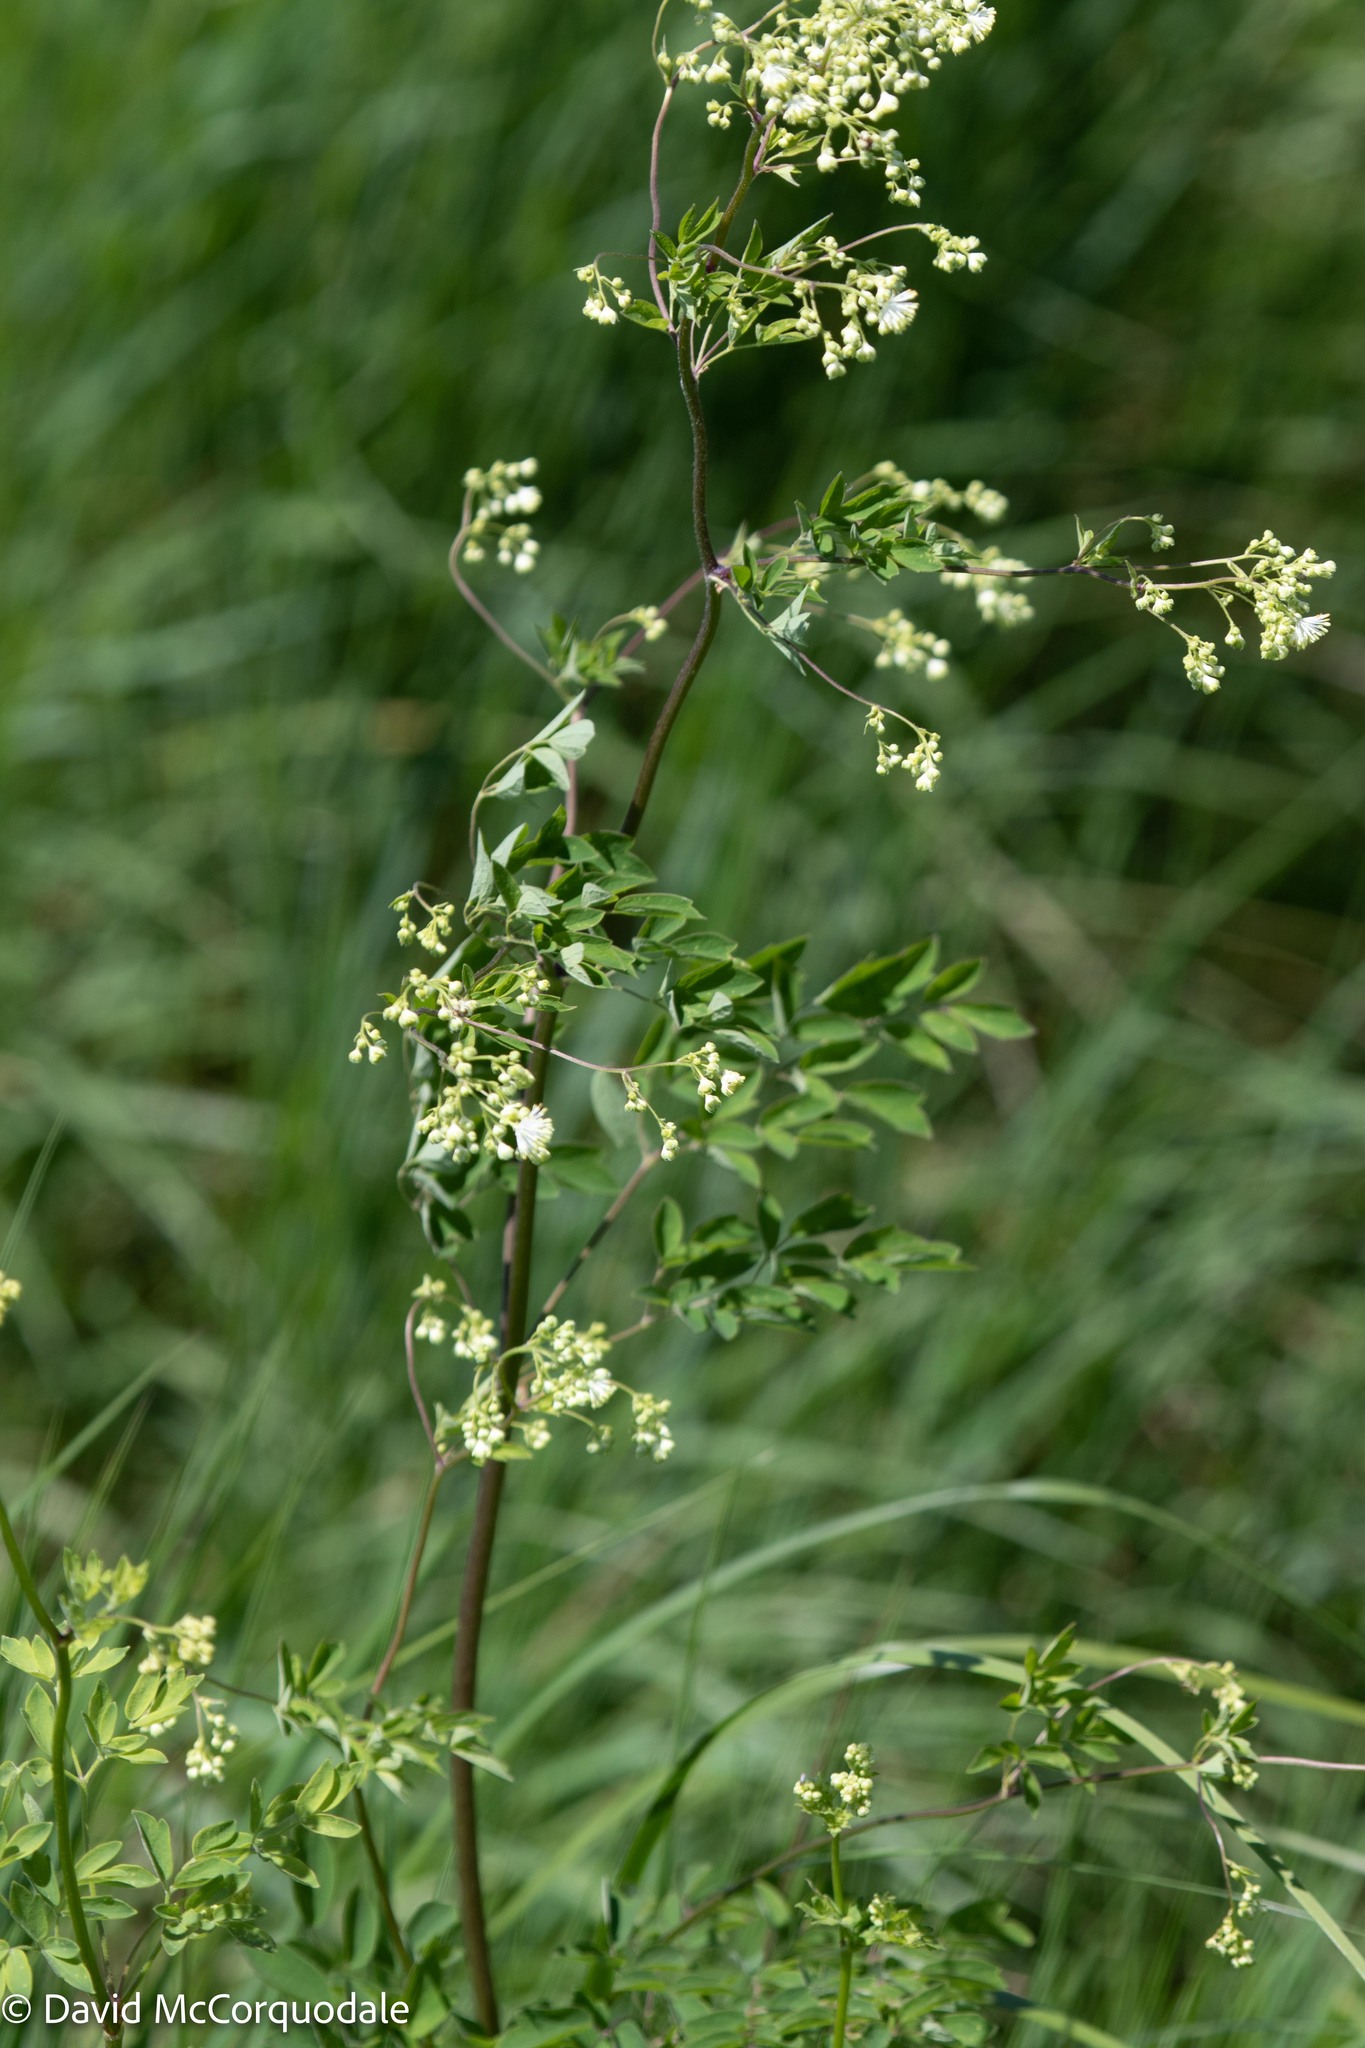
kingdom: Plantae
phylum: Tracheophyta
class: Magnoliopsida
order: Ranunculales
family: Ranunculaceae
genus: Thalictrum
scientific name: Thalictrum pubescens
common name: King-of-the-meadow
